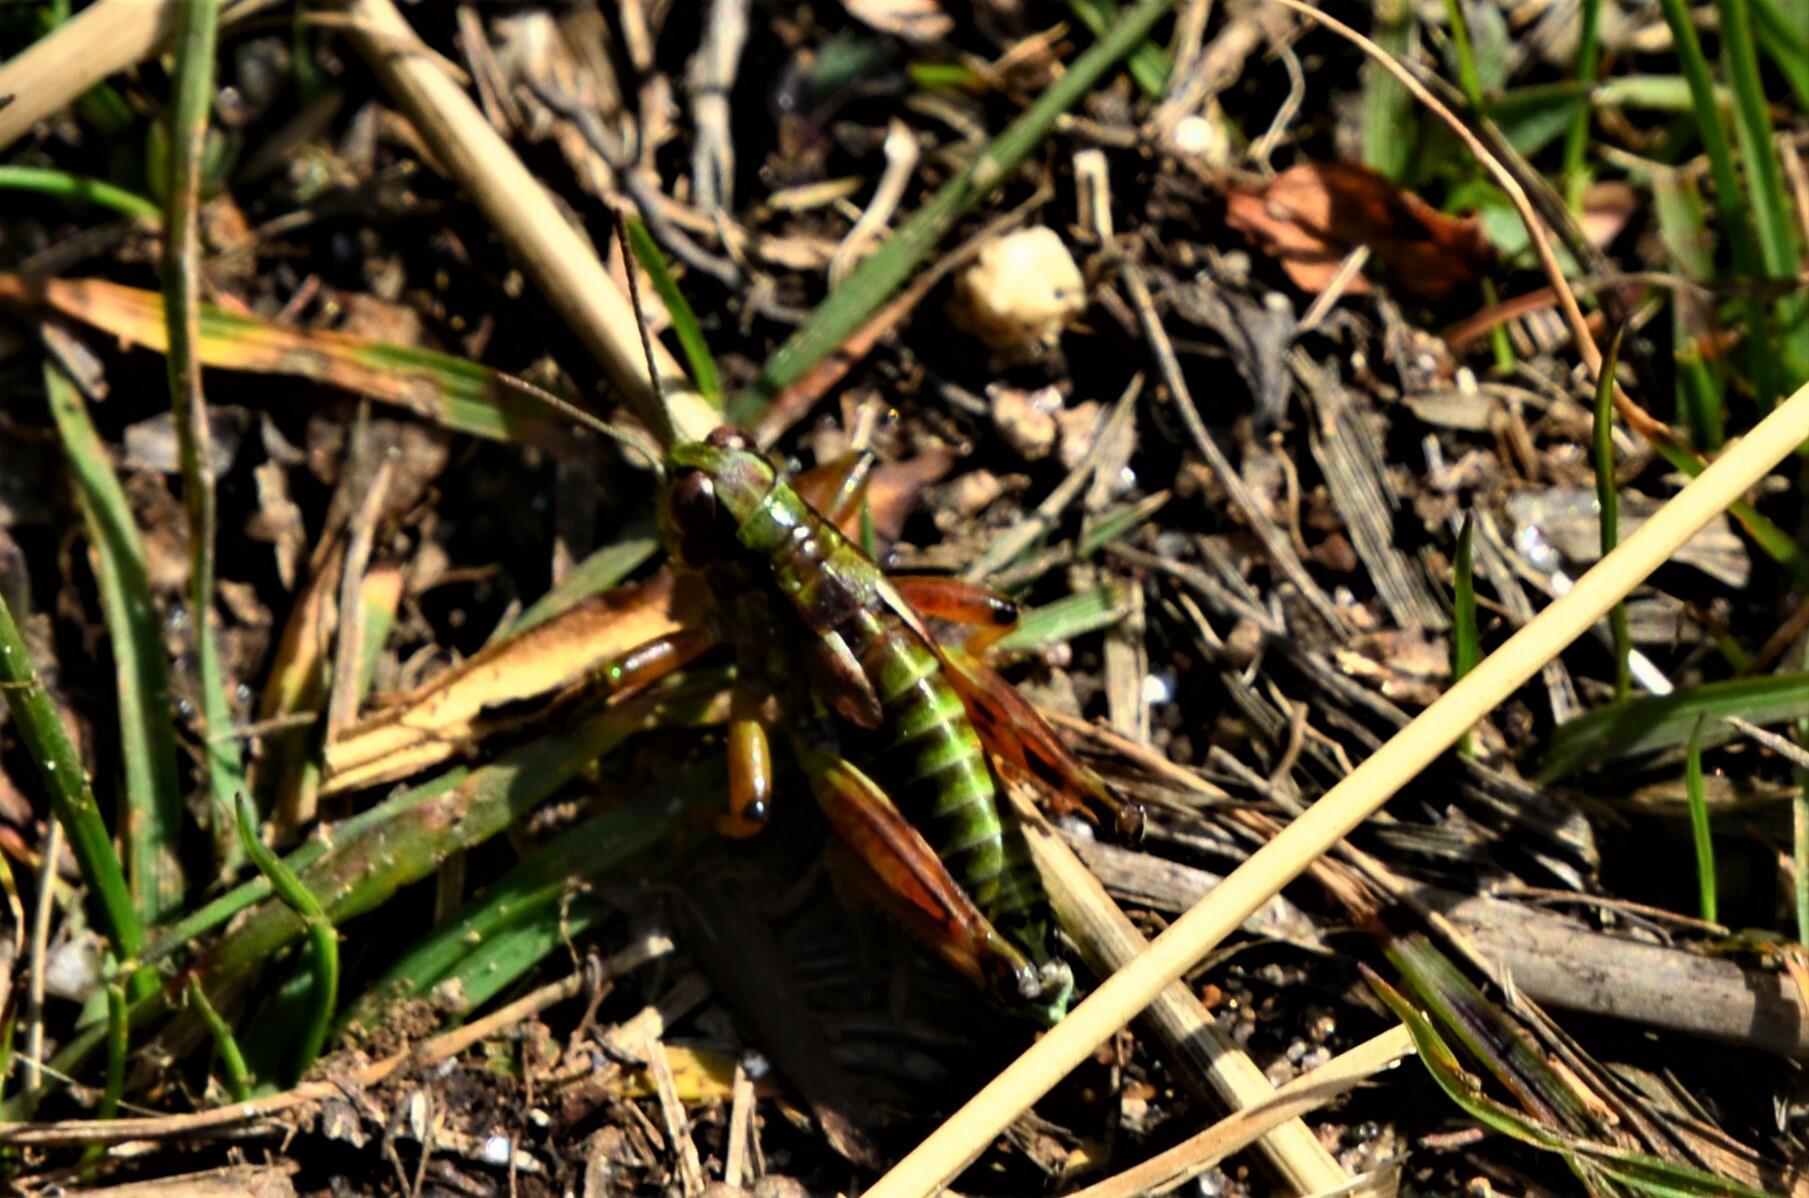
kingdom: Animalia
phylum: Arthropoda
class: Insecta
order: Orthoptera
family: Acrididae
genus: Miramella
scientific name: Miramella carinthiaca
